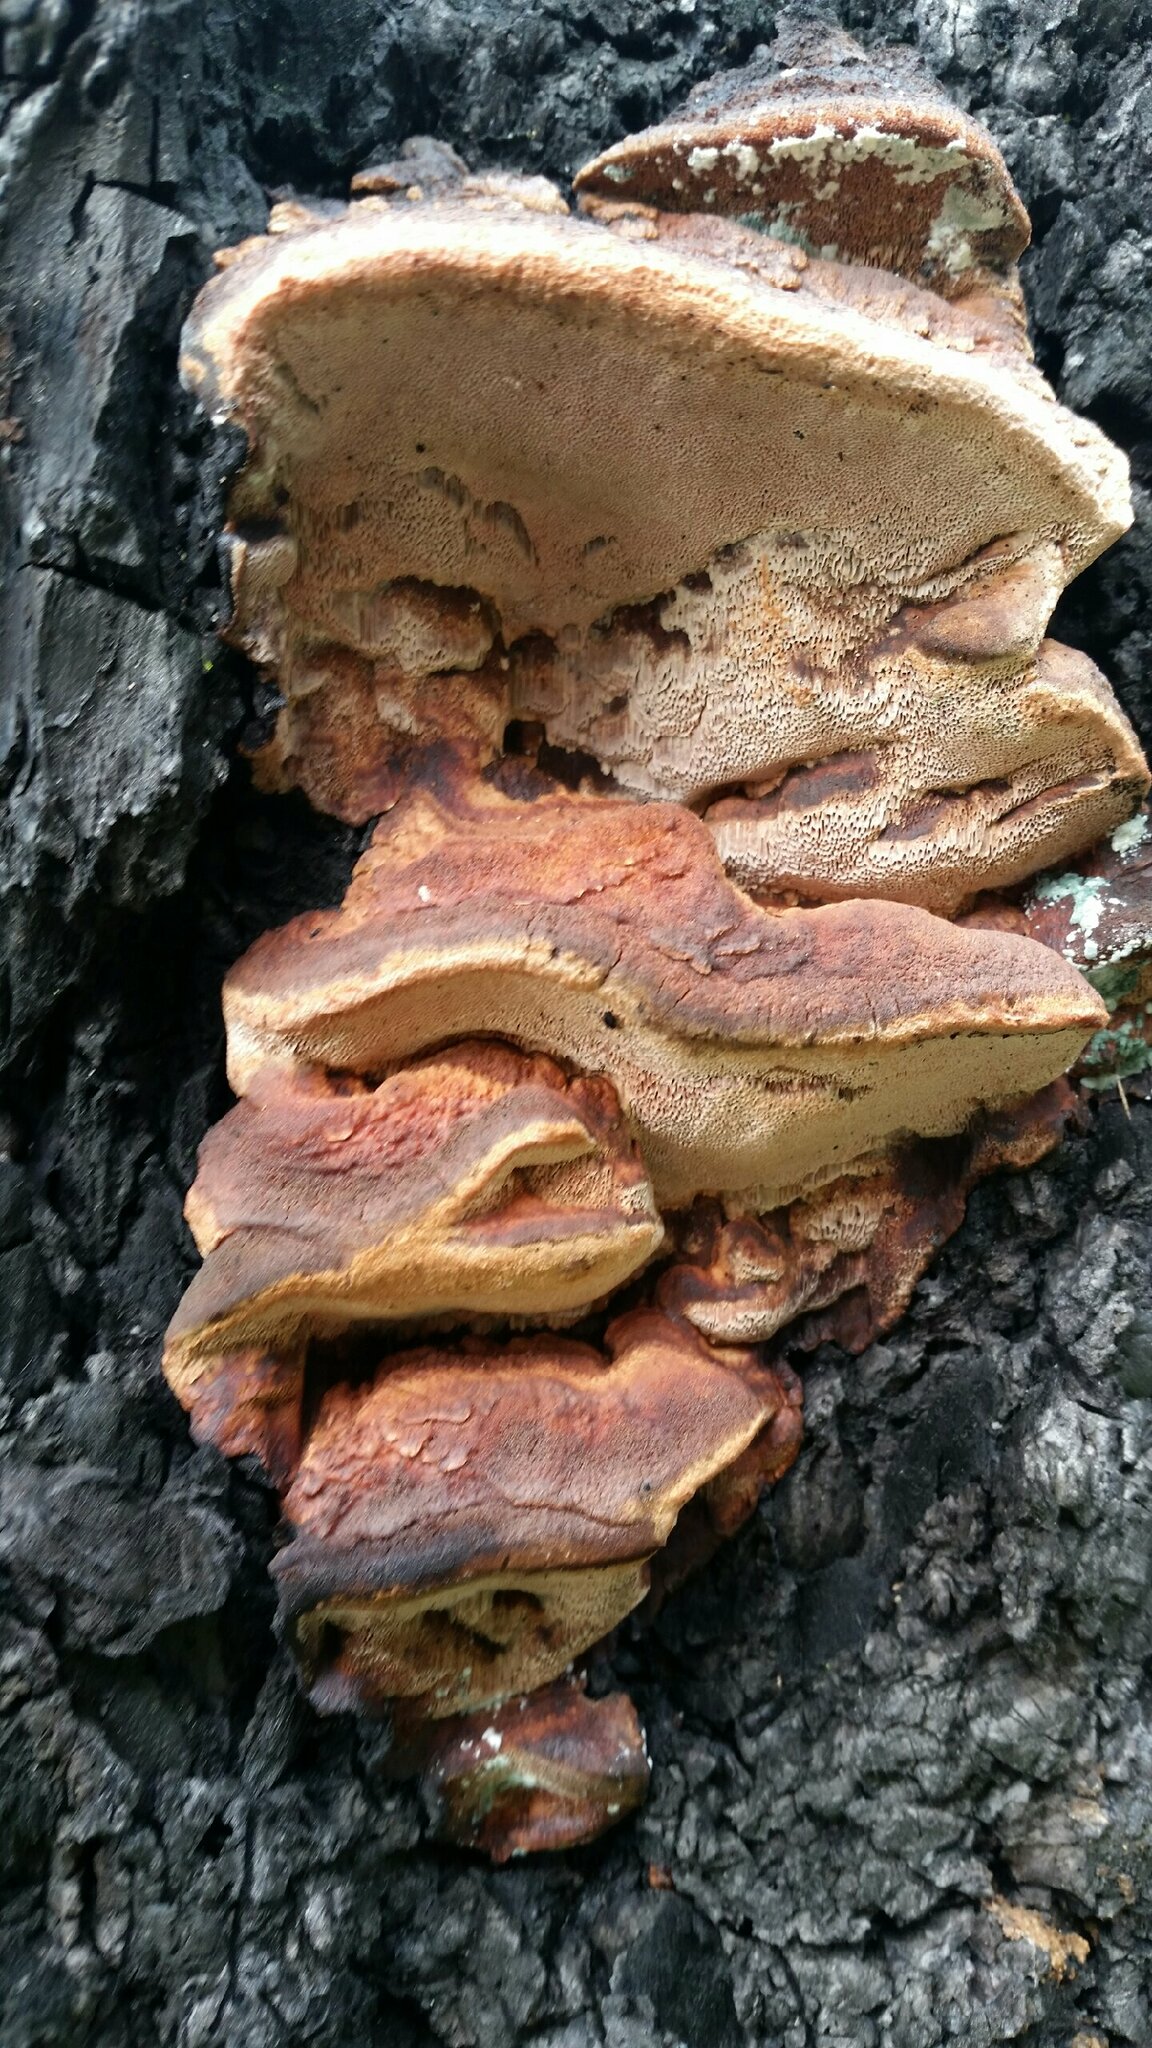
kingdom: Fungi
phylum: Basidiomycota
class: Agaricomycetes
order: Polyporales
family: Fomitopsidaceae
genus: Rhodofomes
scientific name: Rhodofomes cajanderi
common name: Rosy conk
